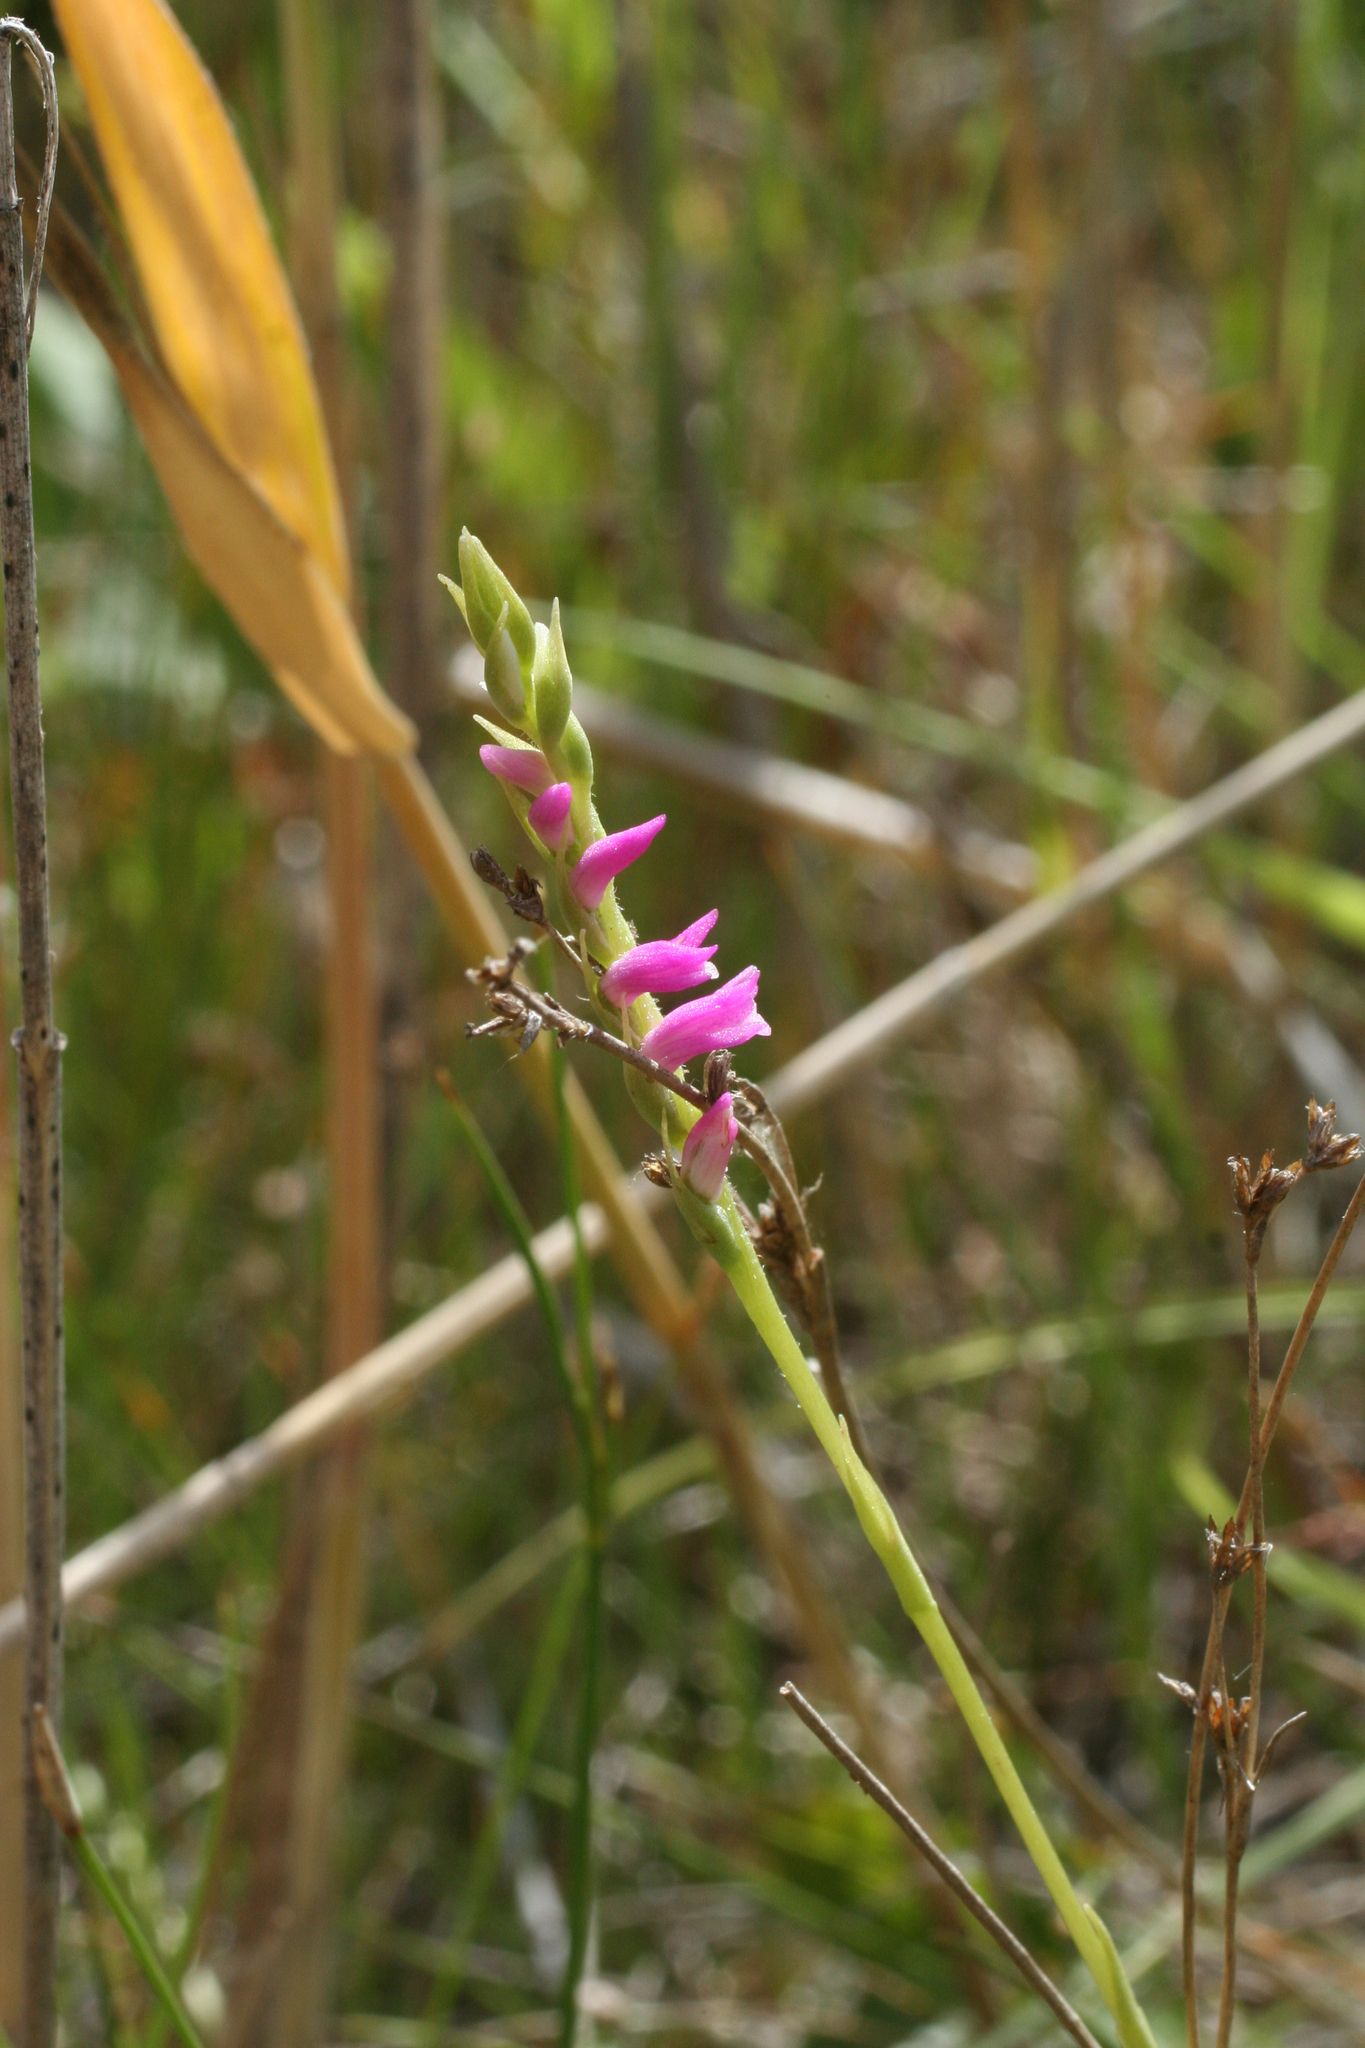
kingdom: Plantae
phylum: Tracheophyta
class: Liliopsida
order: Asparagales
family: Orchidaceae
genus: Spiranthes
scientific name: Spiranthes australis
